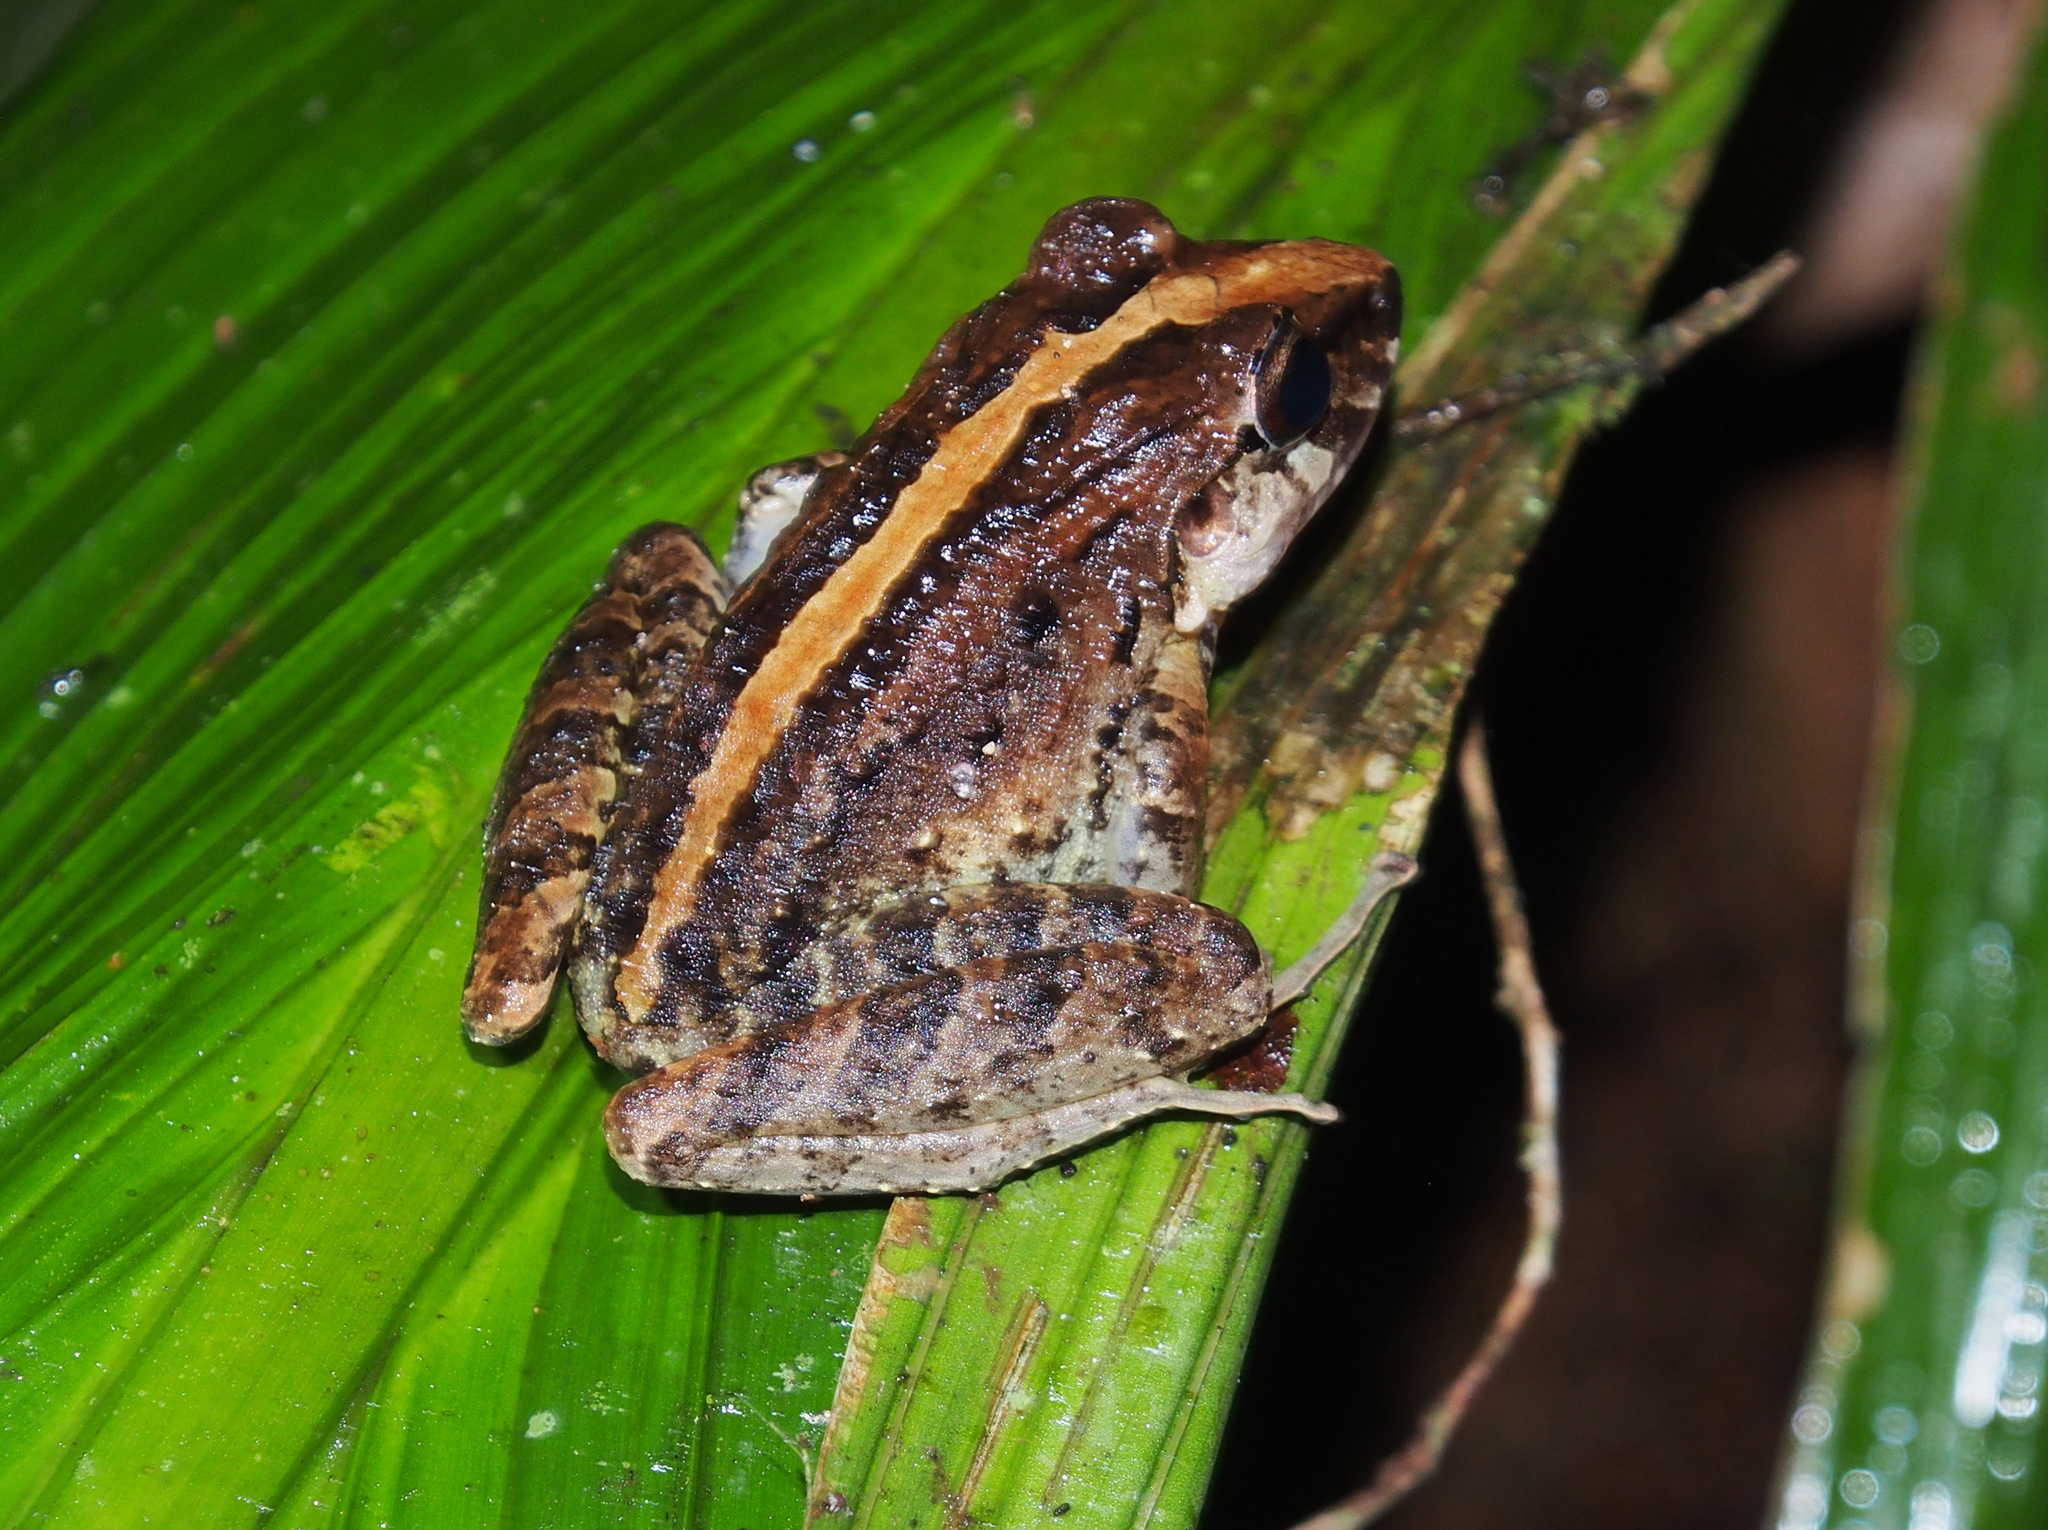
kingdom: Animalia
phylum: Chordata
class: Amphibia
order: Anura
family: Craugastoridae
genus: Craugastor
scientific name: Craugastor fitzingeri
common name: Fitzinger's robber frog
